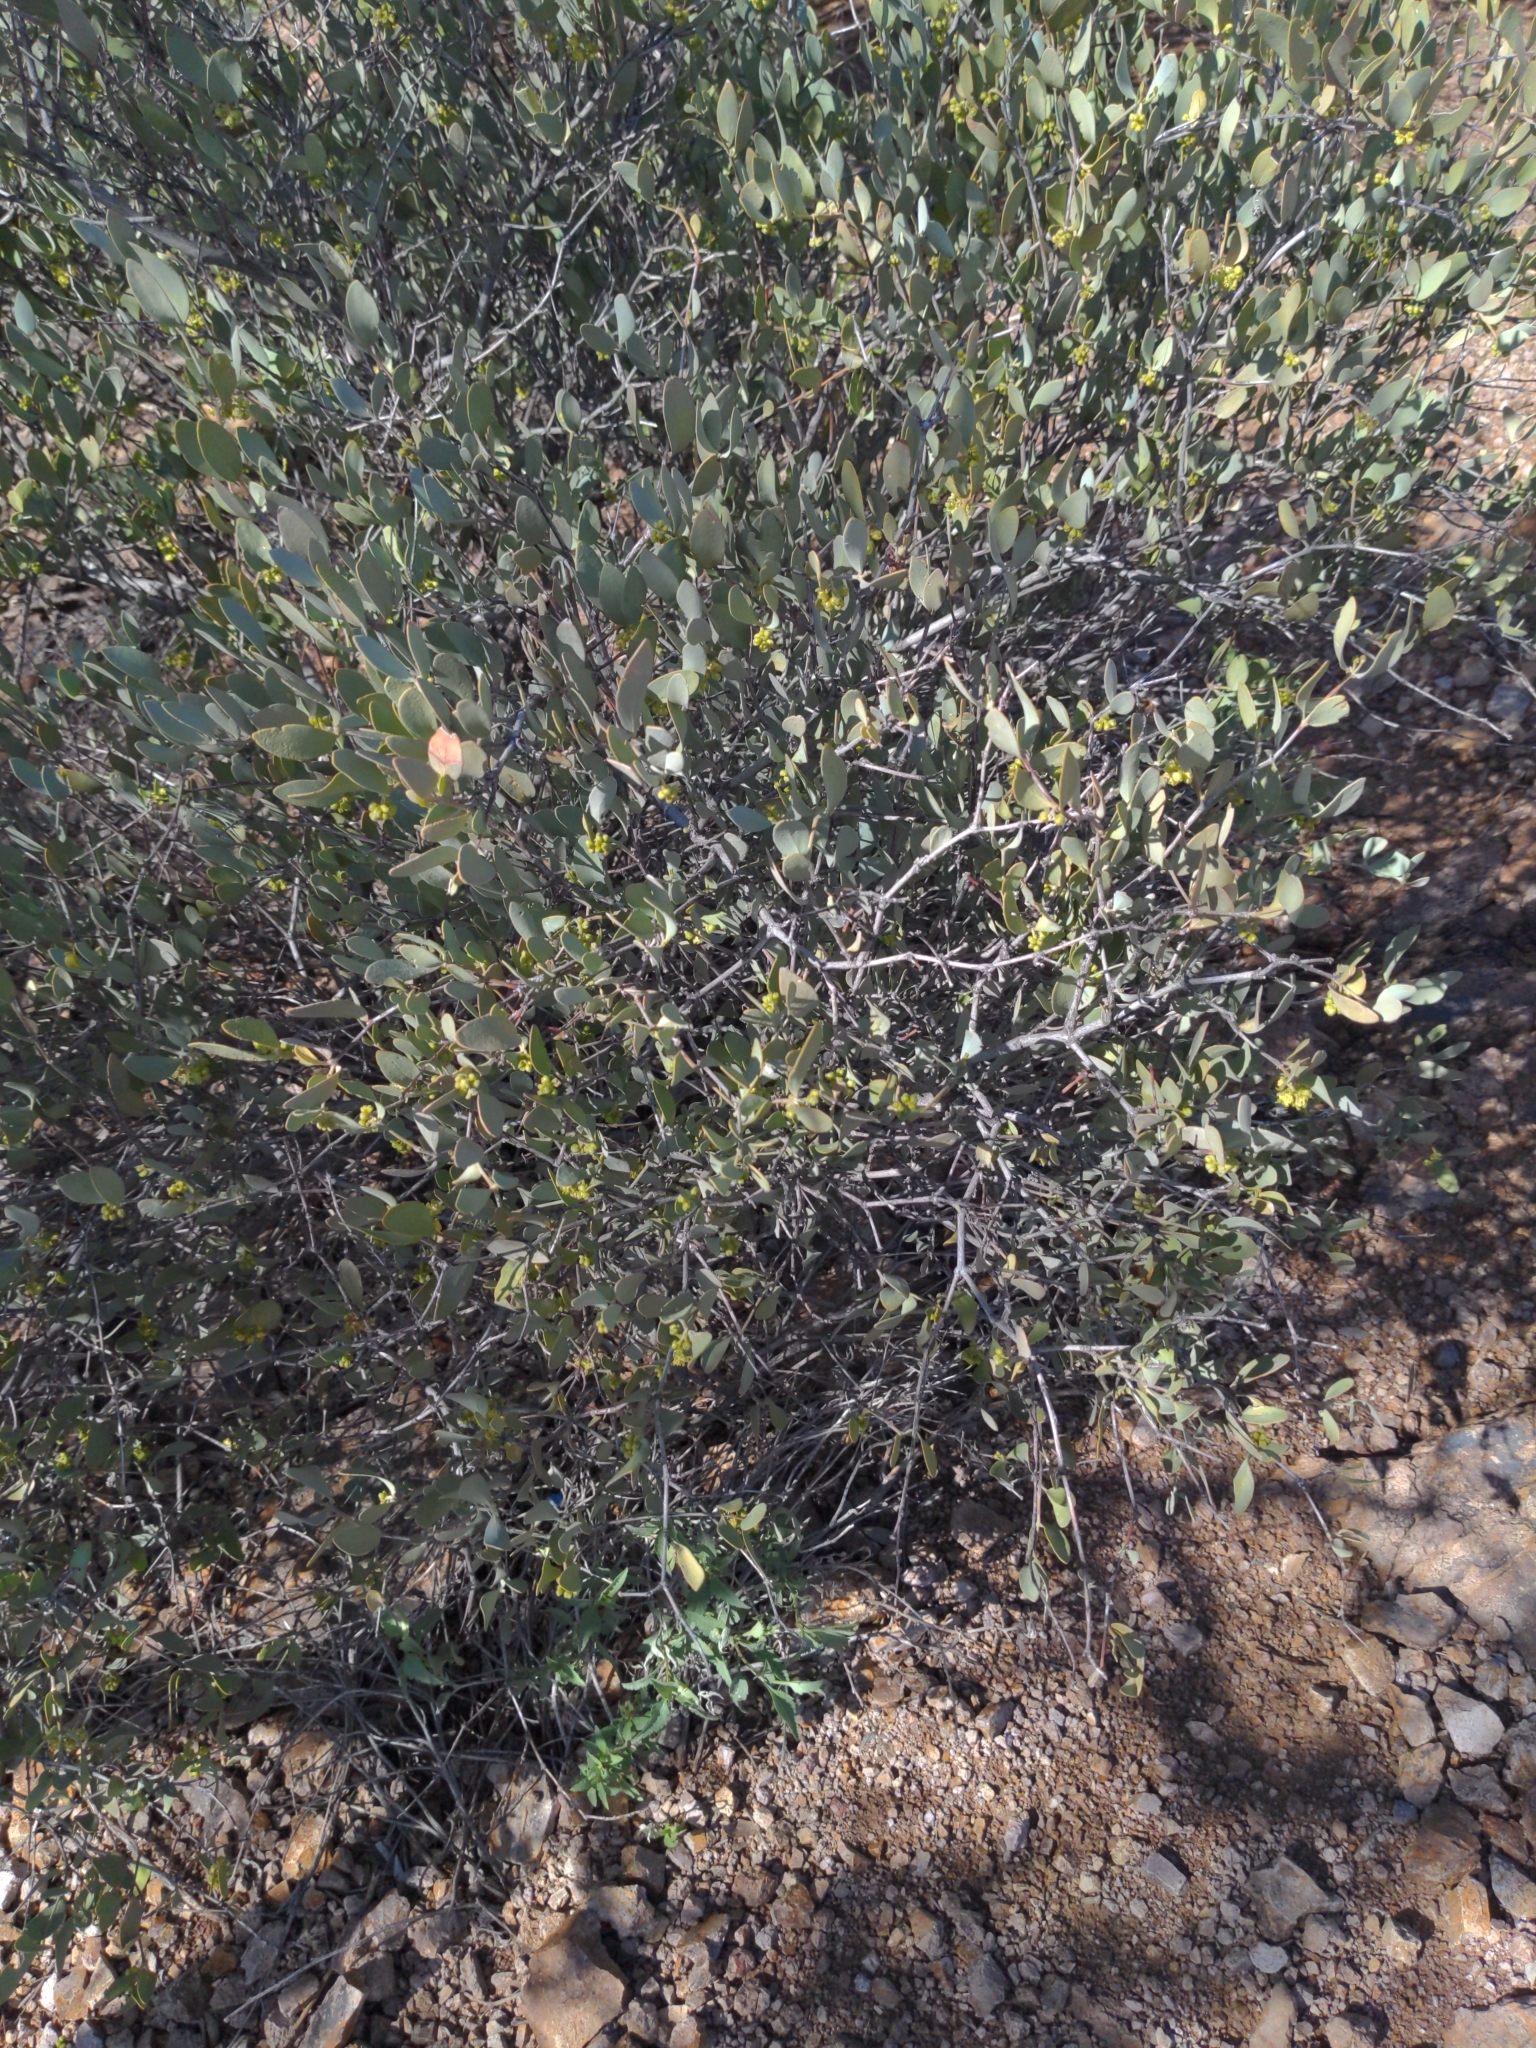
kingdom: Plantae
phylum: Tracheophyta
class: Magnoliopsida
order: Caryophyllales
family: Simmondsiaceae
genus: Simmondsia
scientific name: Simmondsia chinensis
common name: Jojoba
